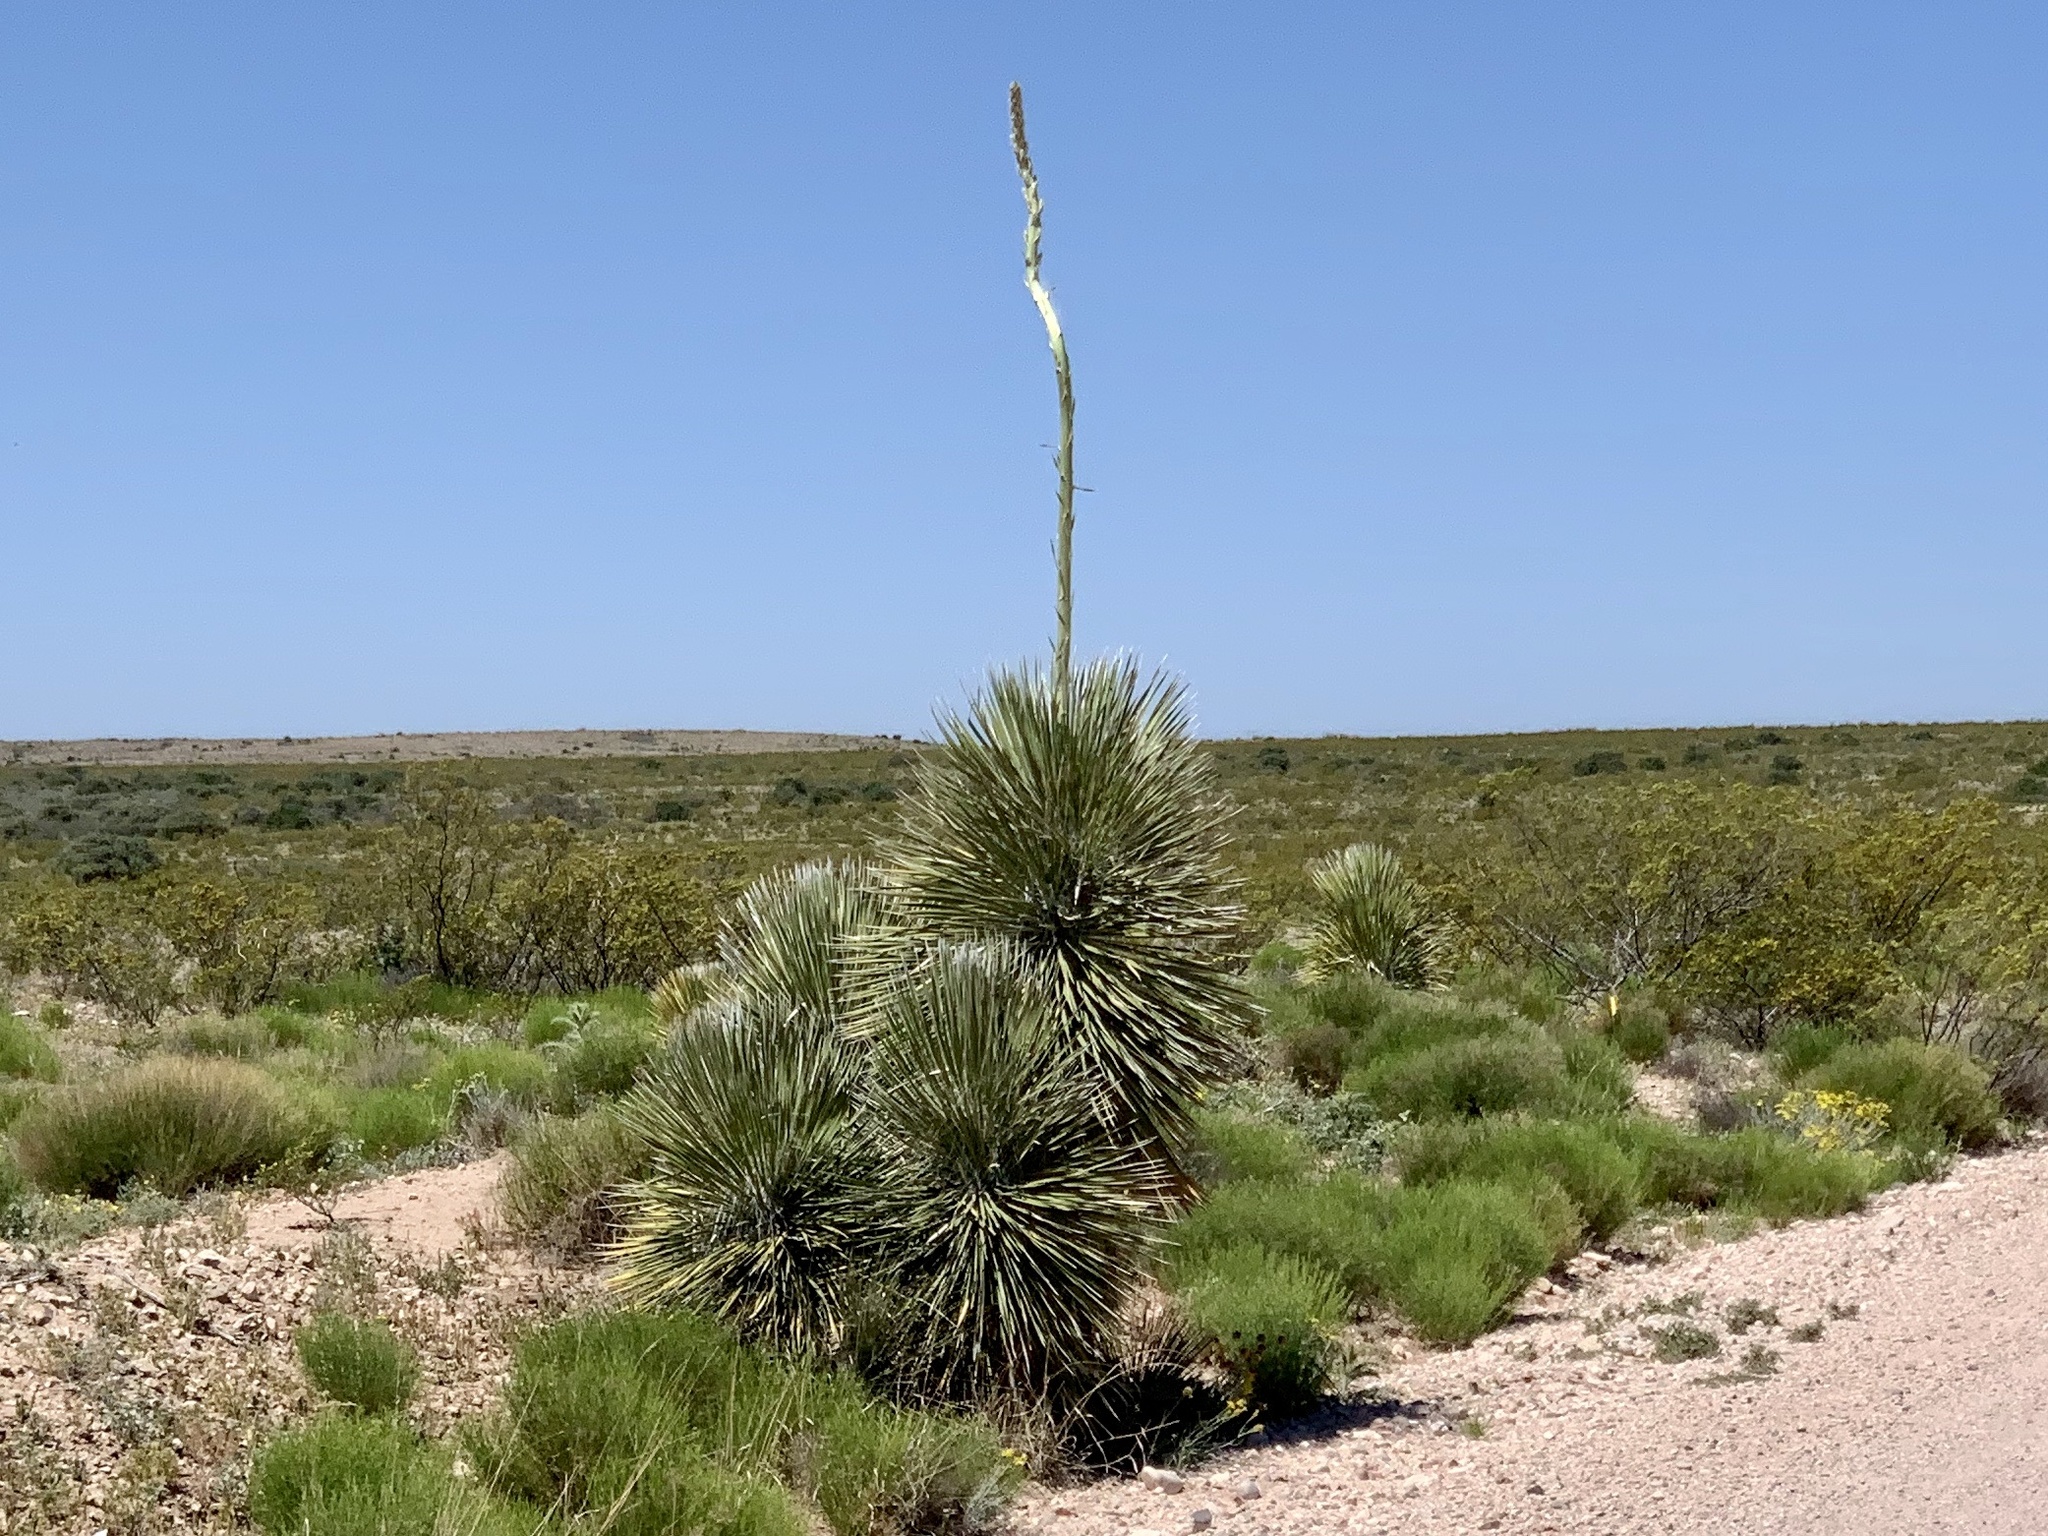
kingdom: Plantae
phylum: Tracheophyta
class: Liliopsida
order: Asparagales
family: Asparagaceae
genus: Yucca
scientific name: Yucca elata
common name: Palmella
